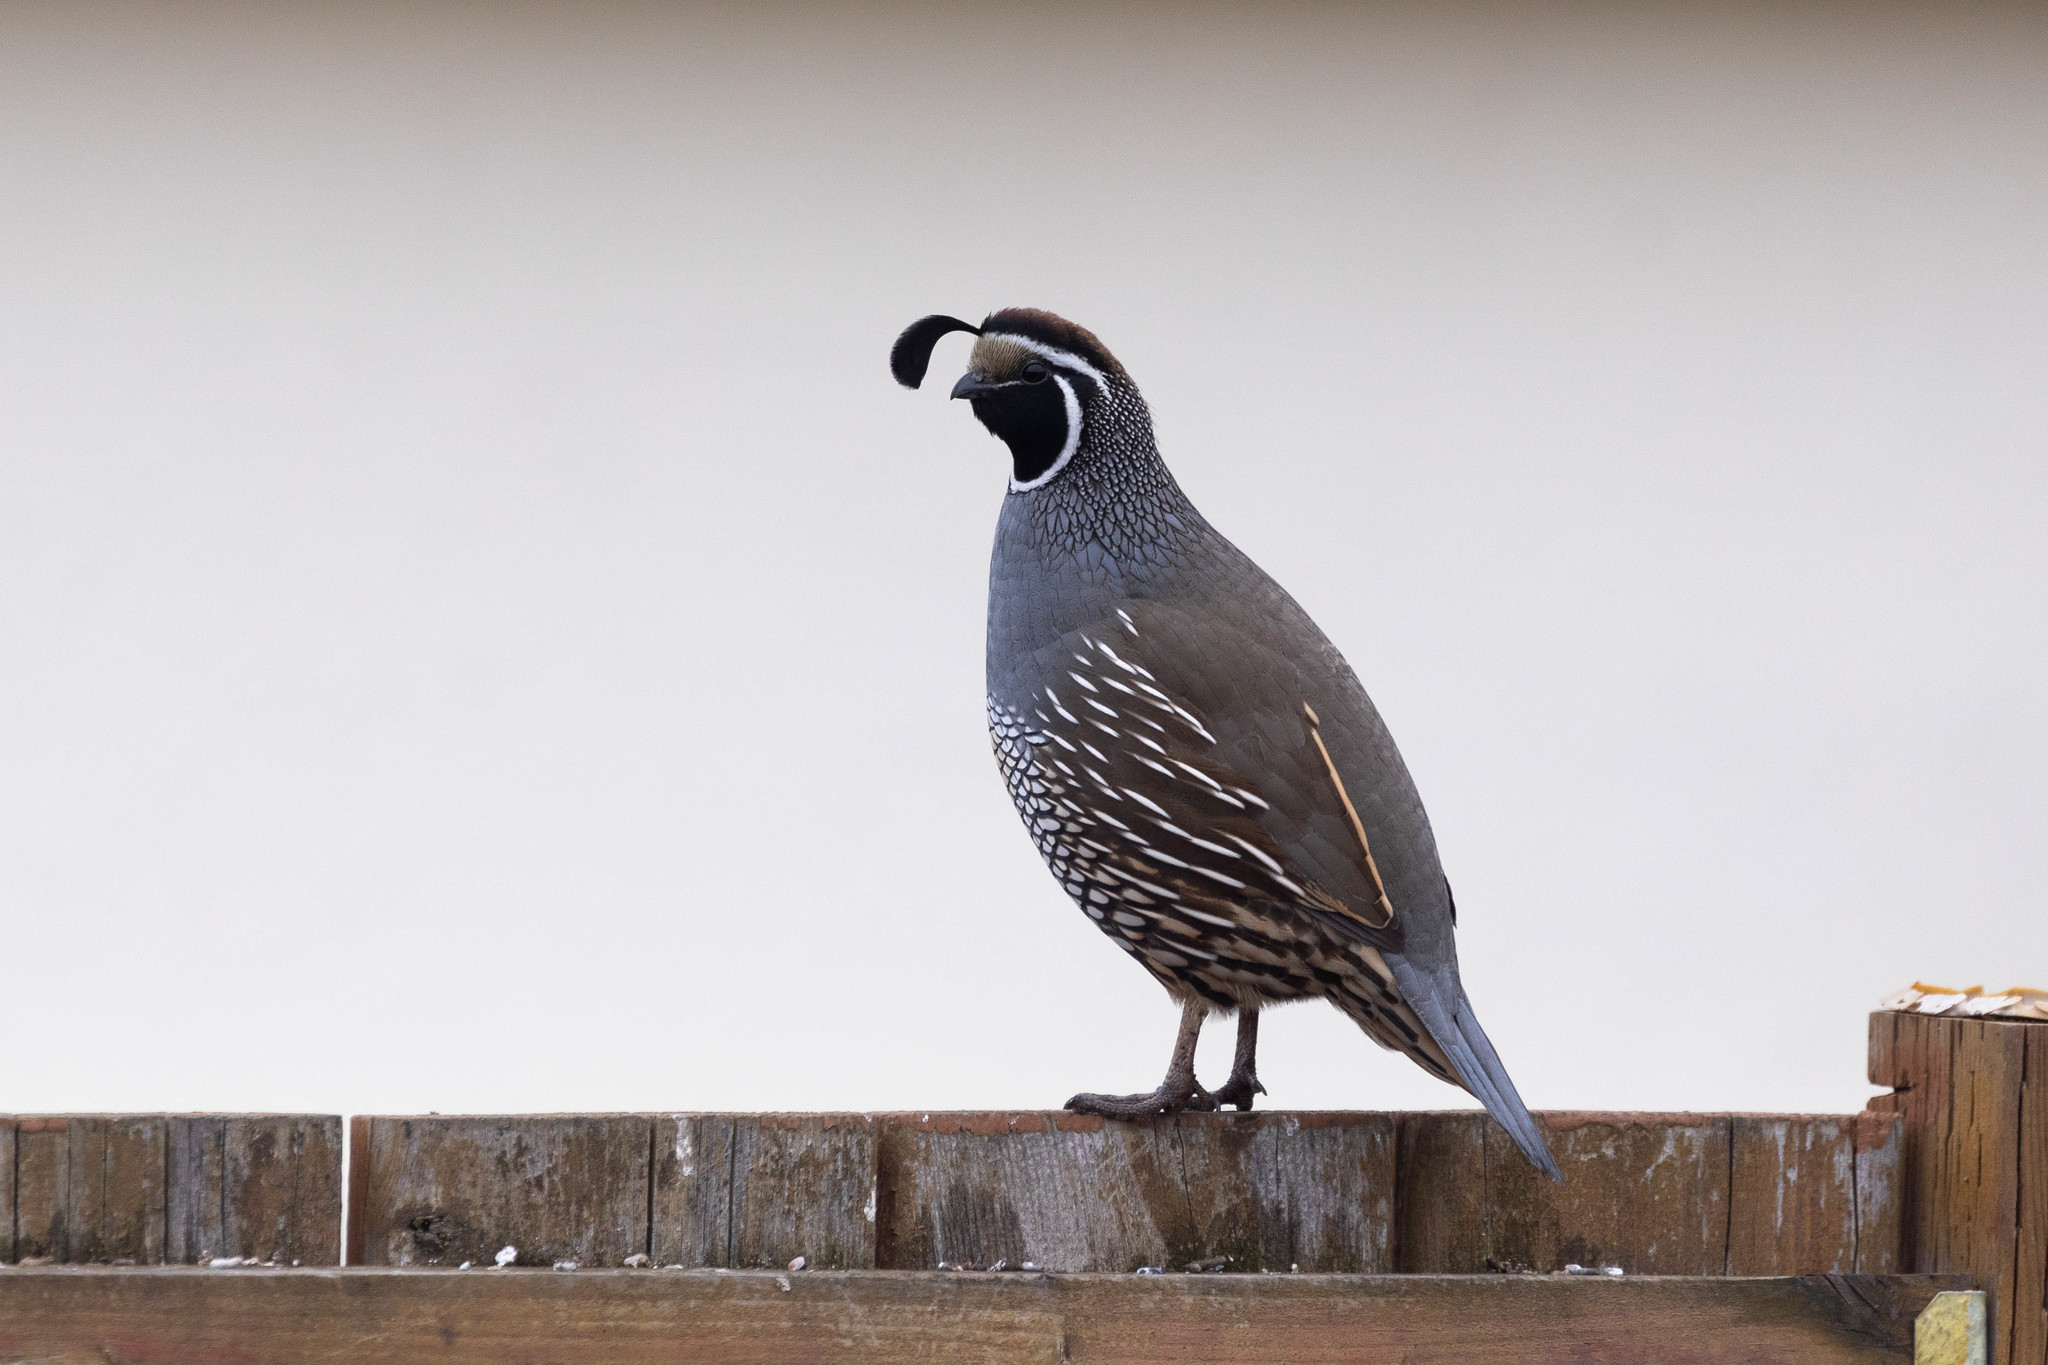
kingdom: Animalia
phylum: Chordata
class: Aves
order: Galliformes
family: Odontophoridae
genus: Callipepla
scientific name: Callipepla californica
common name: California quail
